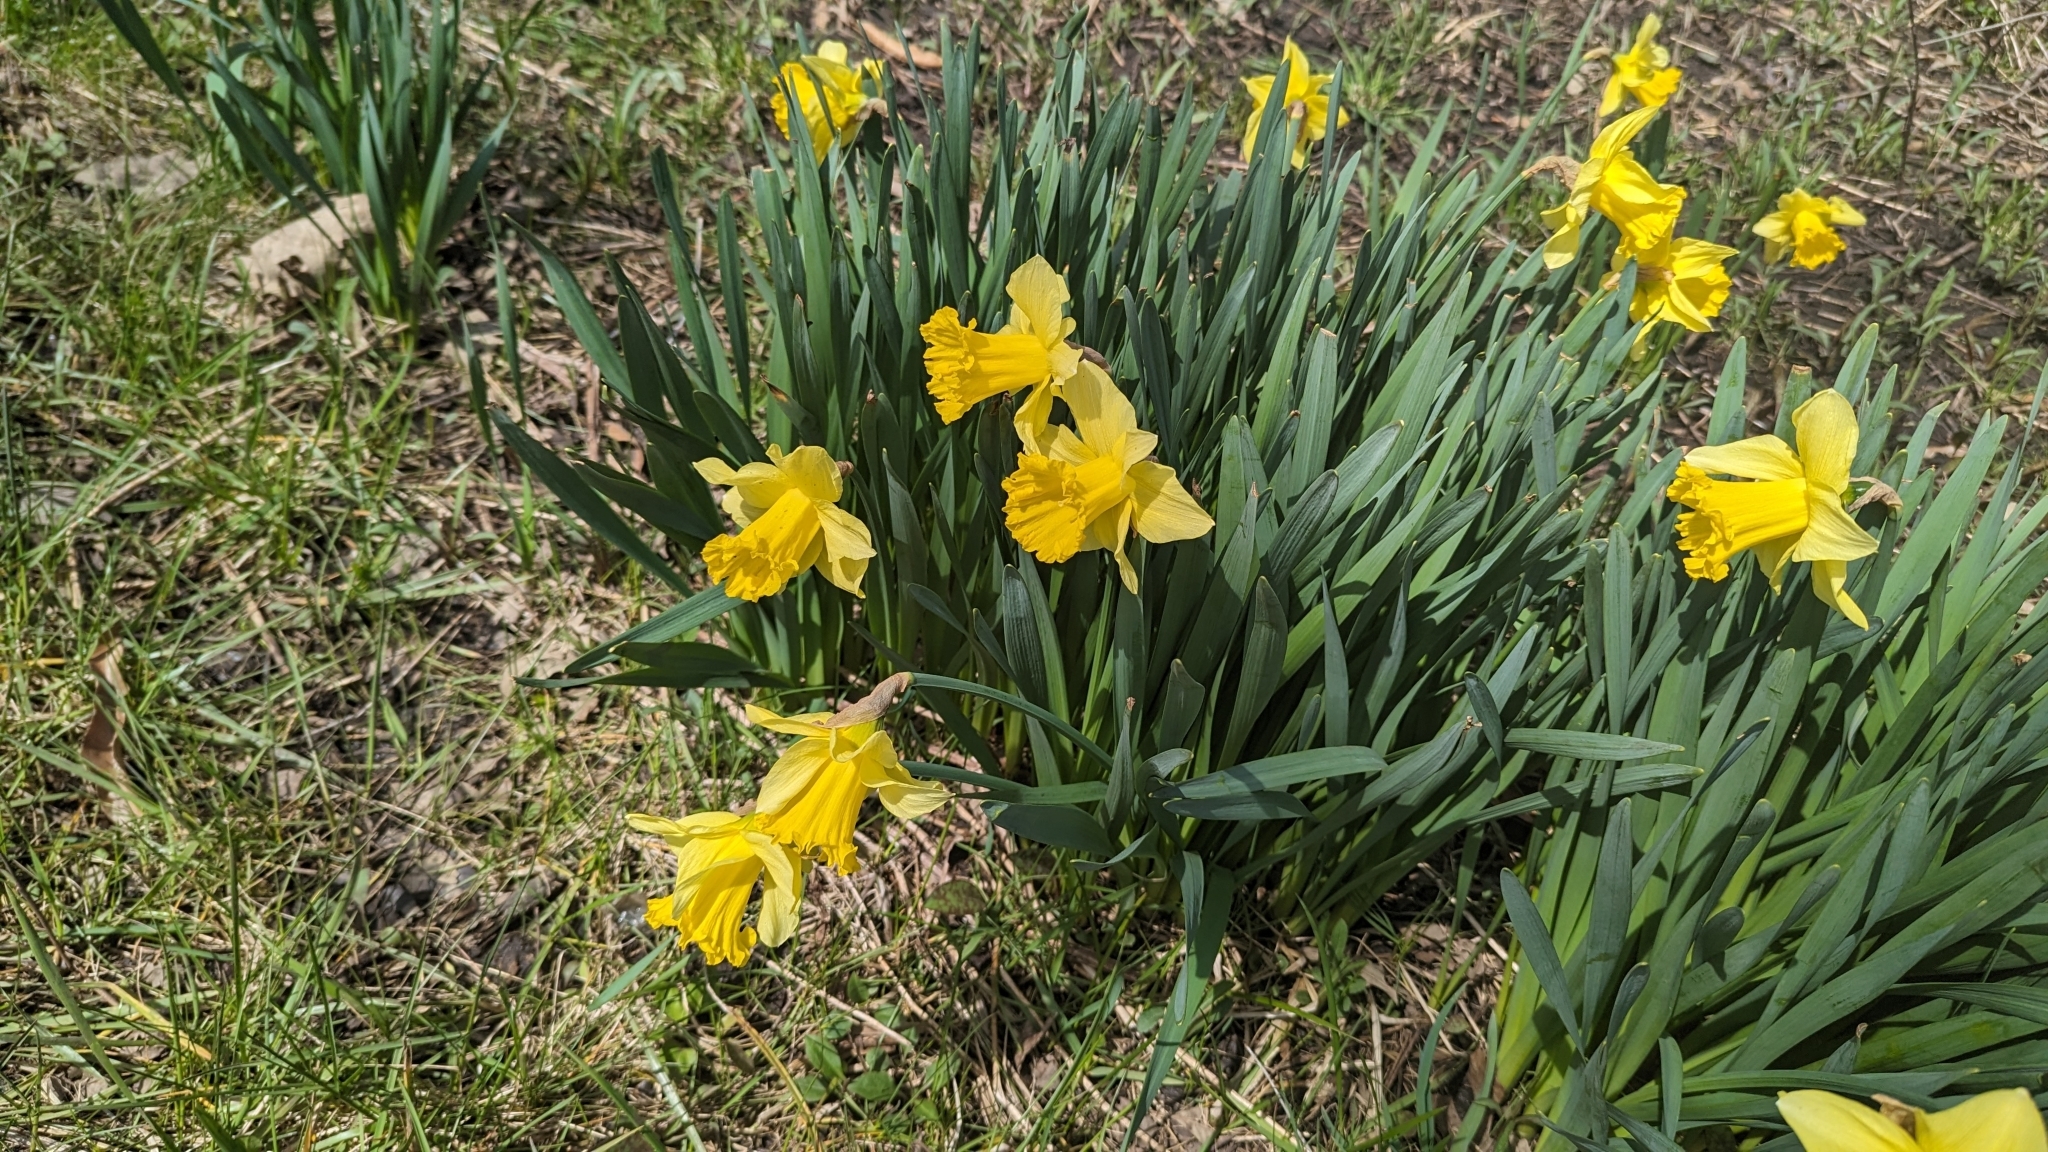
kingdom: Plantae
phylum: Tracheophyta
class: Liliopsida
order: Asparagales
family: Amaryllidaceae
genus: Narcissus
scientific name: Narcissus pseudonarcissus
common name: Daffodil
